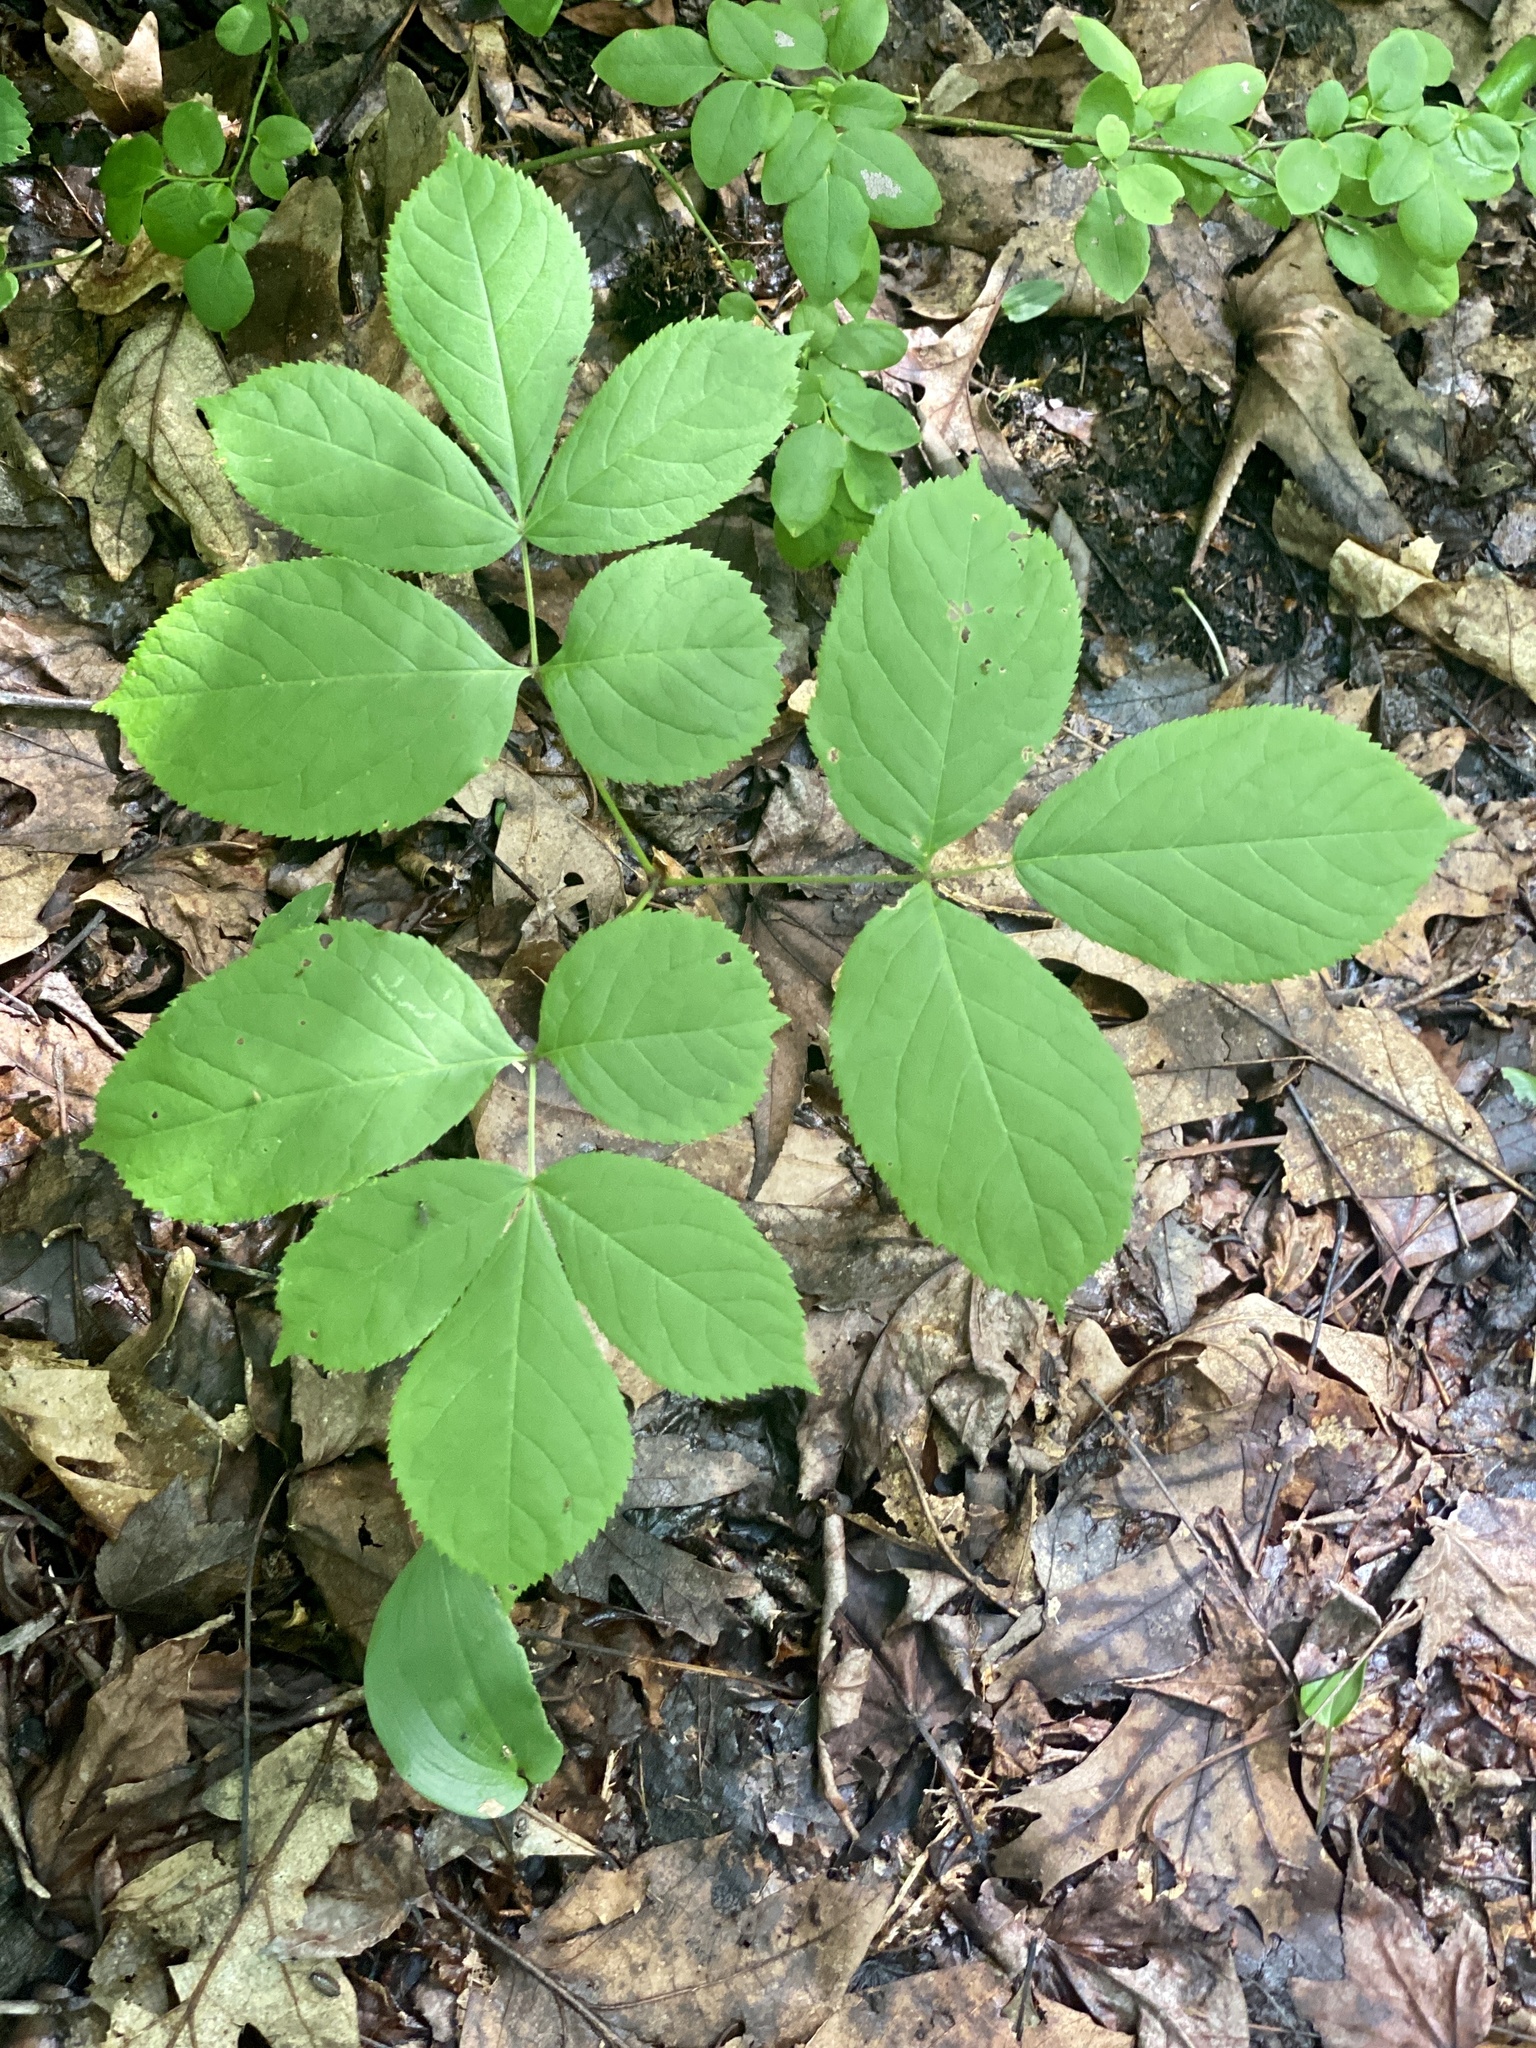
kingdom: Plantae
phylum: Tracheophyta
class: Magnoliopsida
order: Apiales
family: Araliaceae
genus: Aralia
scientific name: Aralia nudicaulis
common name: Wild sarsaparilla
